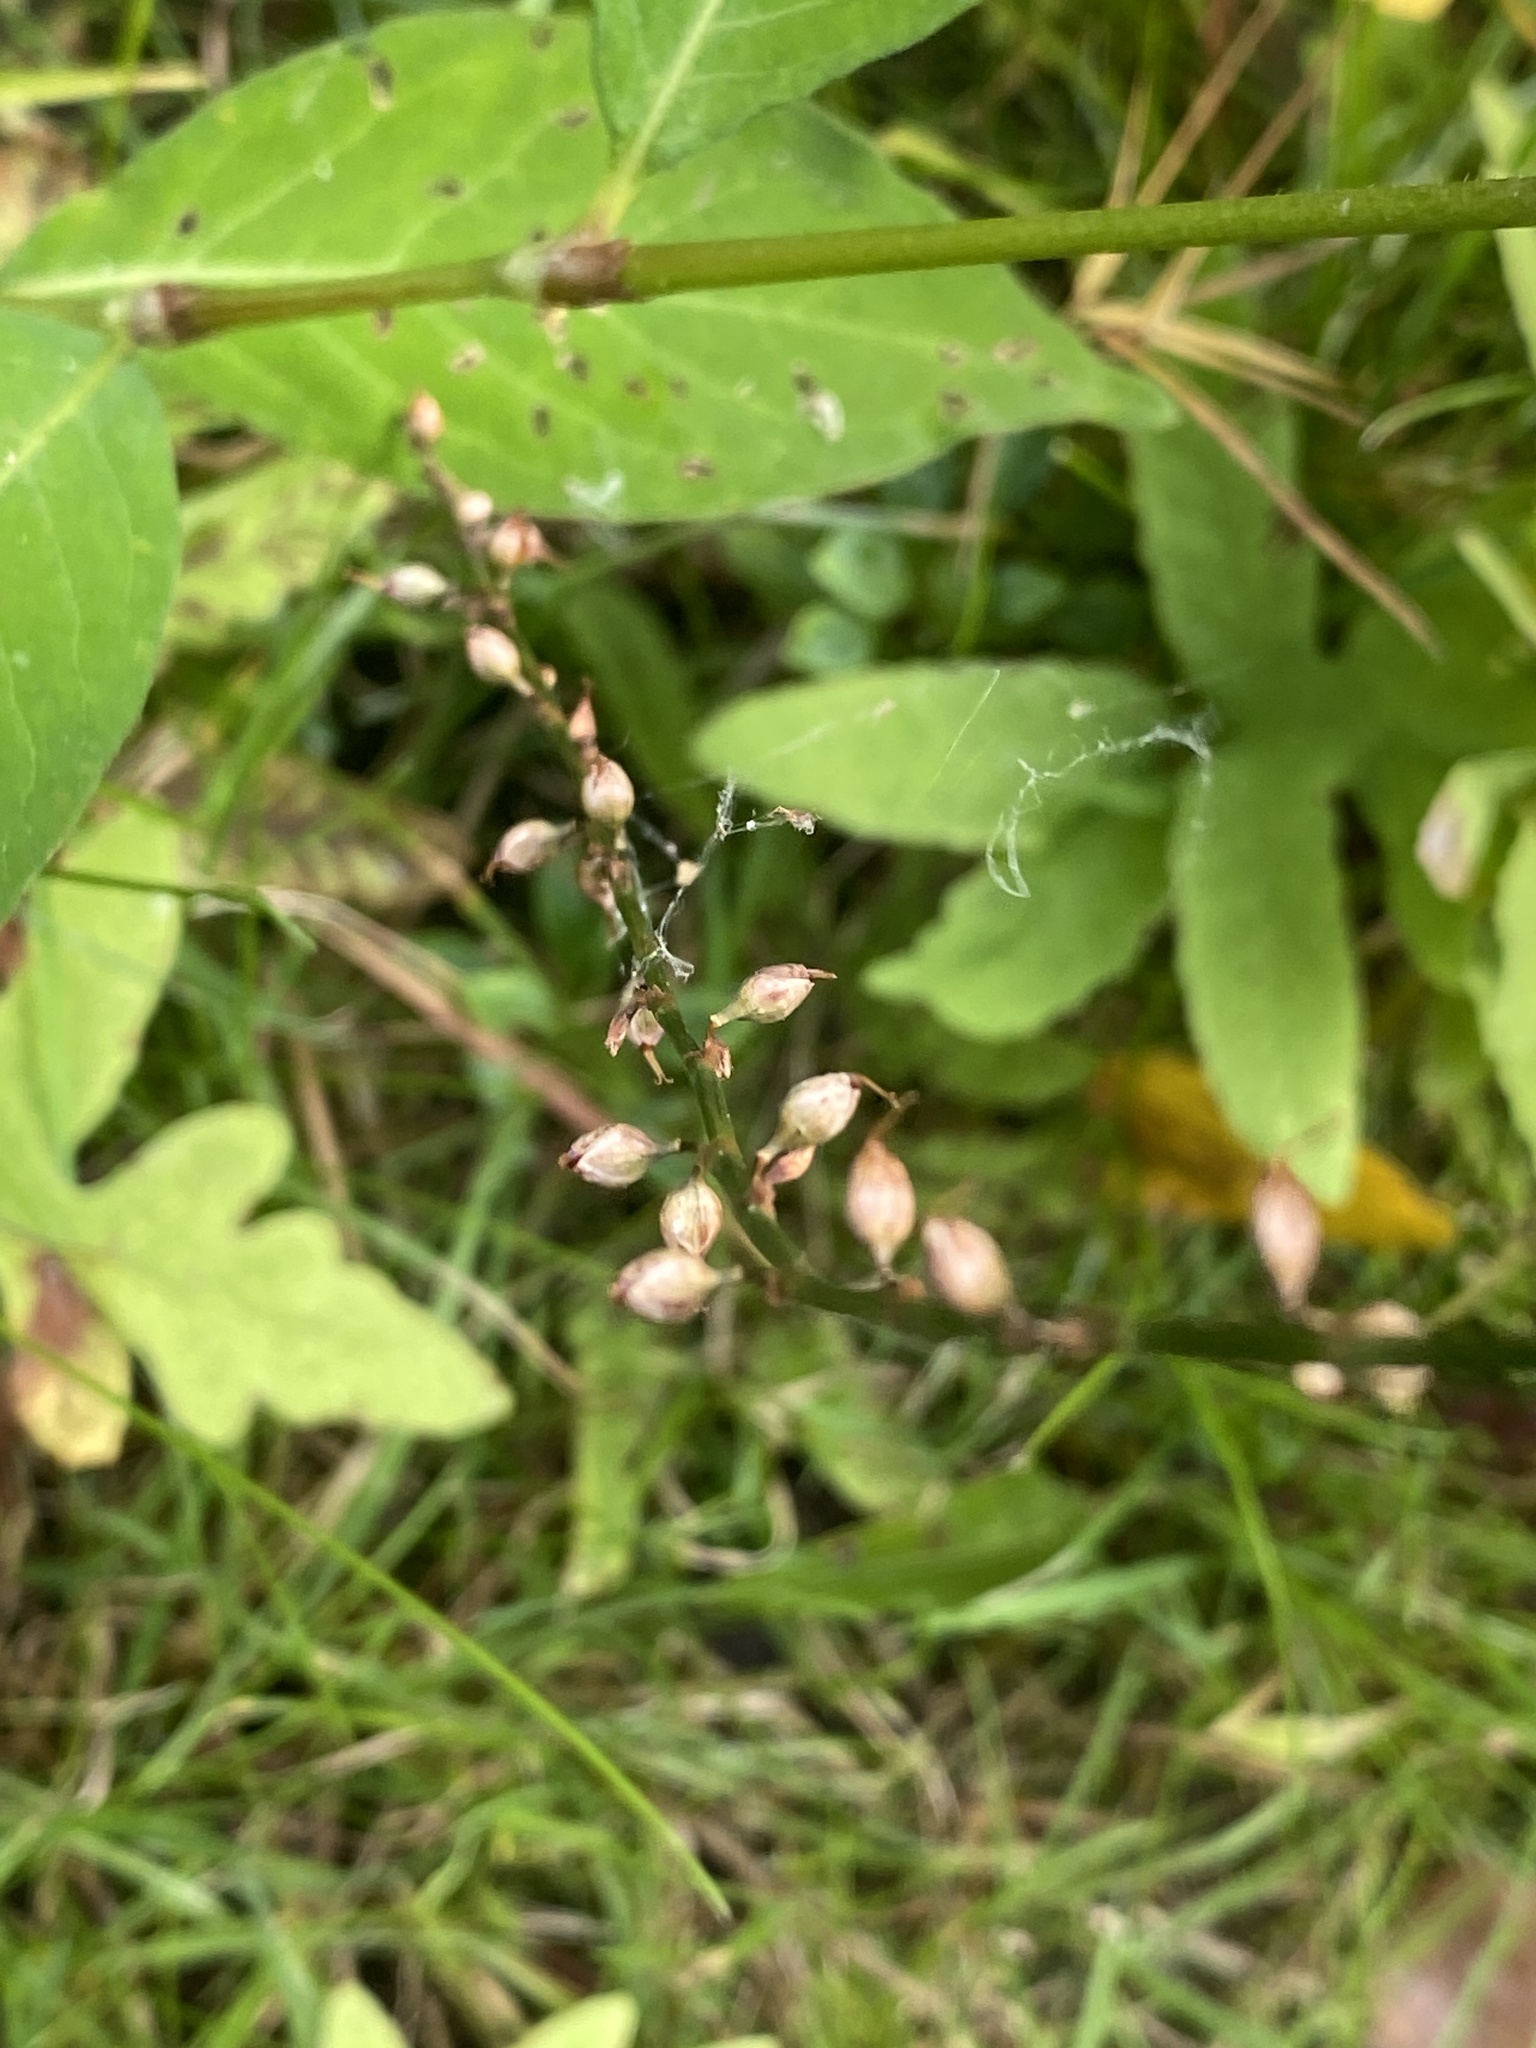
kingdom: Plantae
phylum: Tracheophyta
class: Magnoliopsida
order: Caryophyllales
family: Polygonaceae
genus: Persicaria
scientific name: Persicaria virginiana
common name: Jumpseed
